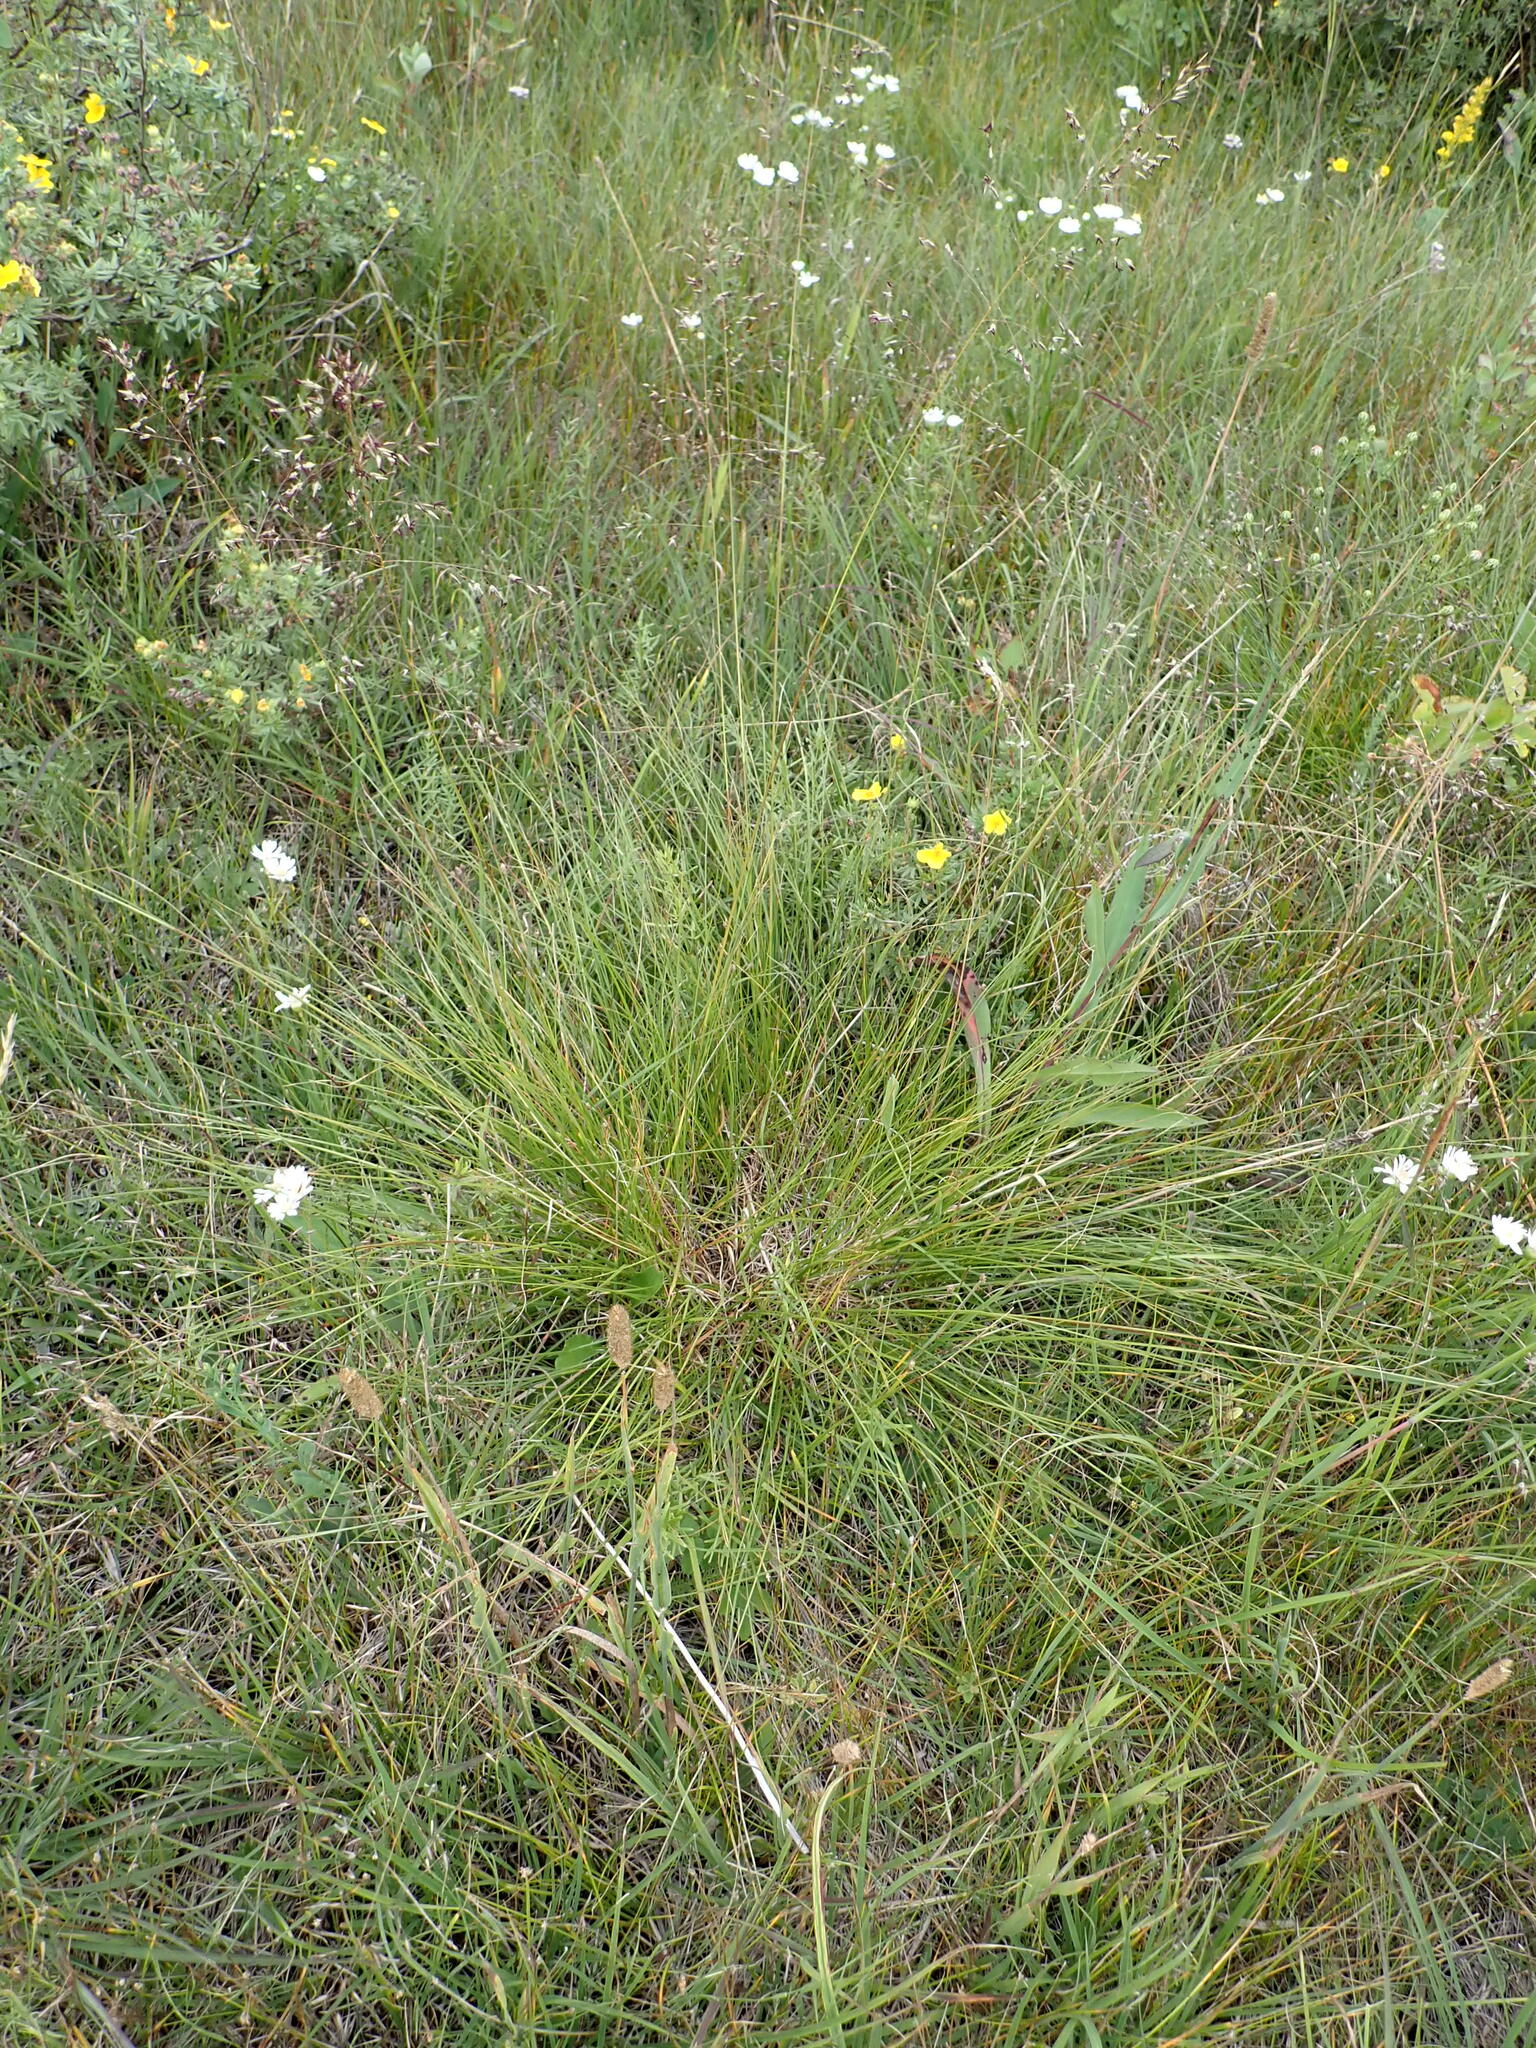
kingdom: Plantae
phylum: Tracheophyta
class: Liliopsida
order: Poales
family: Poaceae
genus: Sporobolus
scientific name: Sporobolus heterolepis
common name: Prairie dropseed
